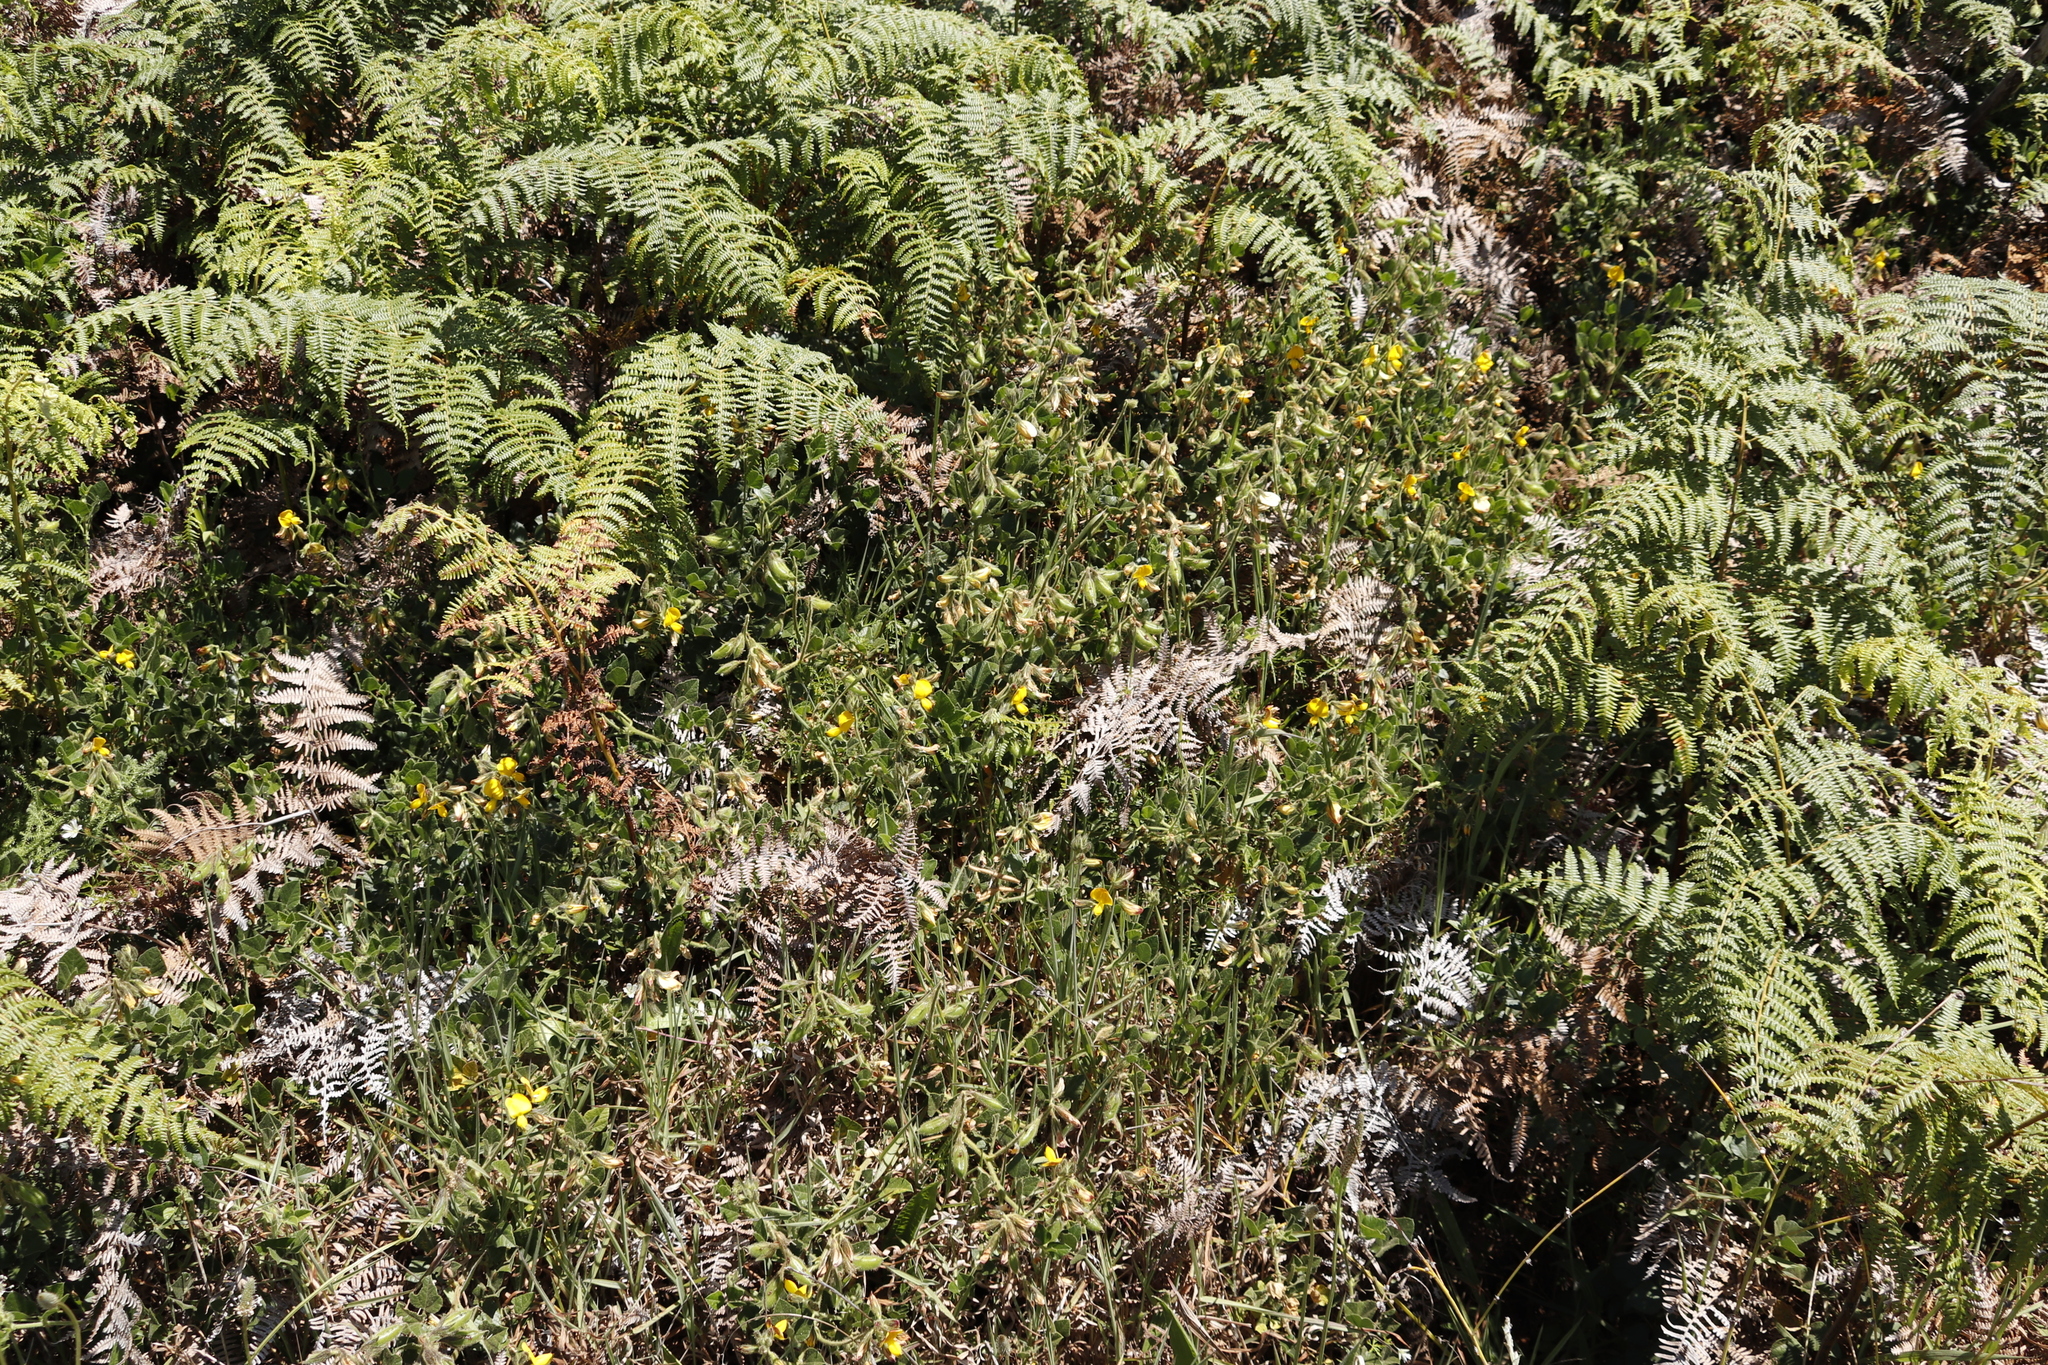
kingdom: Plantae
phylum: Tracheophyta
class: Magnoliopsida
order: Fabales
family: Fabaceae
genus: Bolusafra
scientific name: Bolusafra bituminosa
